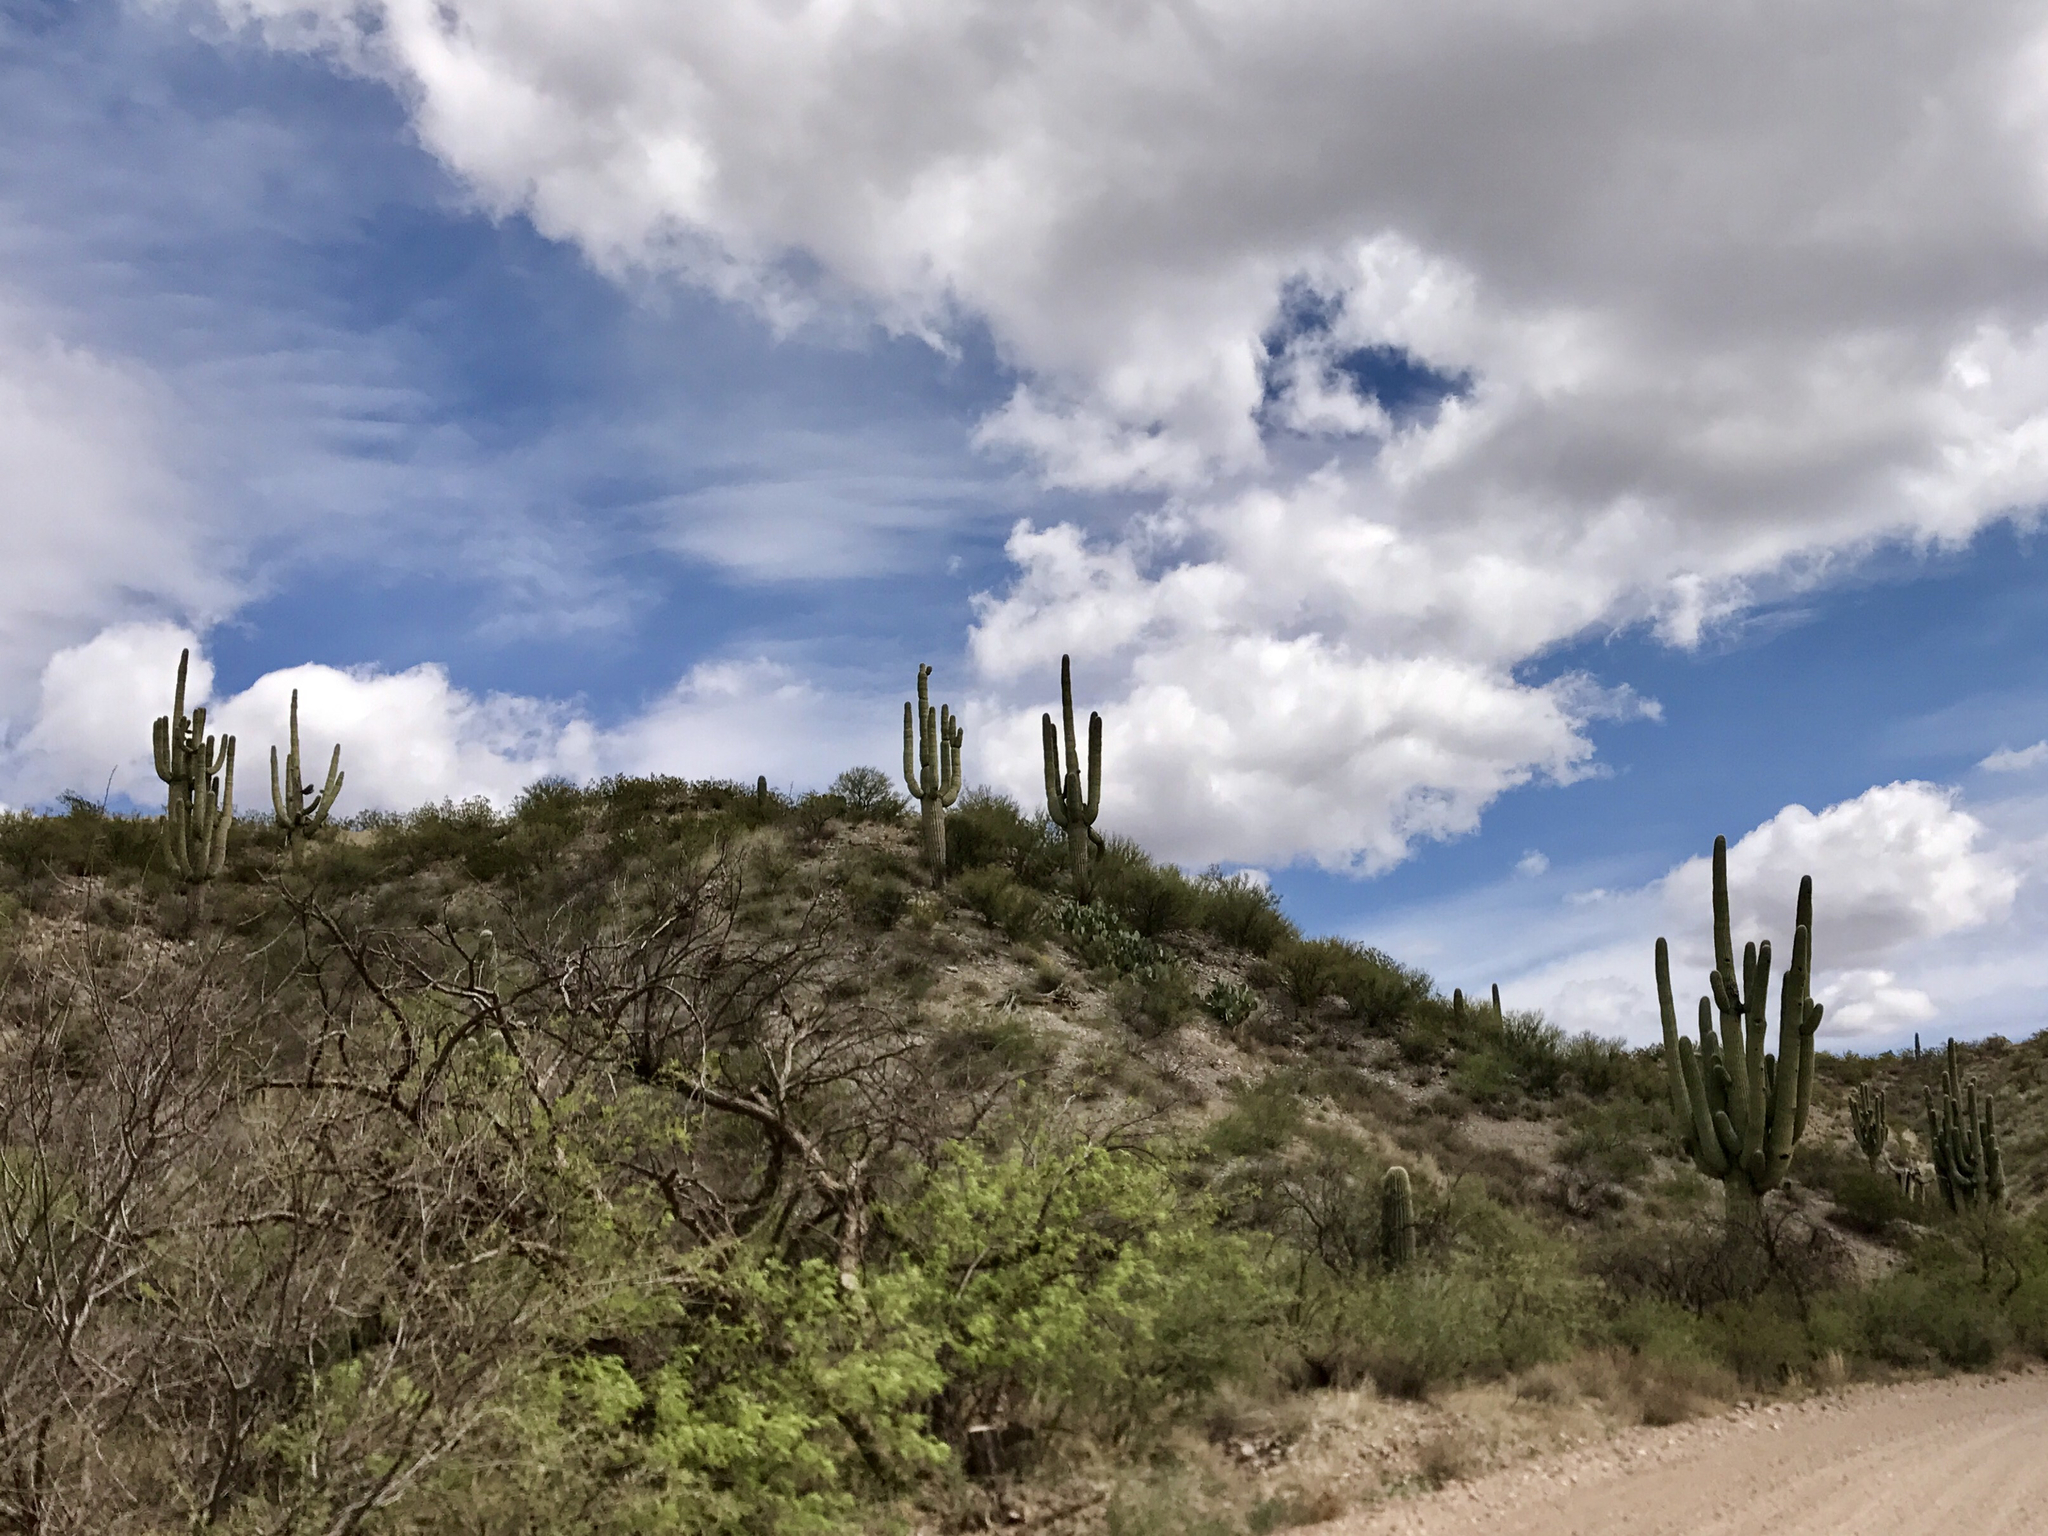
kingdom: Plantae
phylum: Tracheophyta
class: Magnoliopsida
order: Caryophyllales
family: Cactaceae
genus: Carnegiea
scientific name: Carnegiea gigantea
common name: Saguaro
